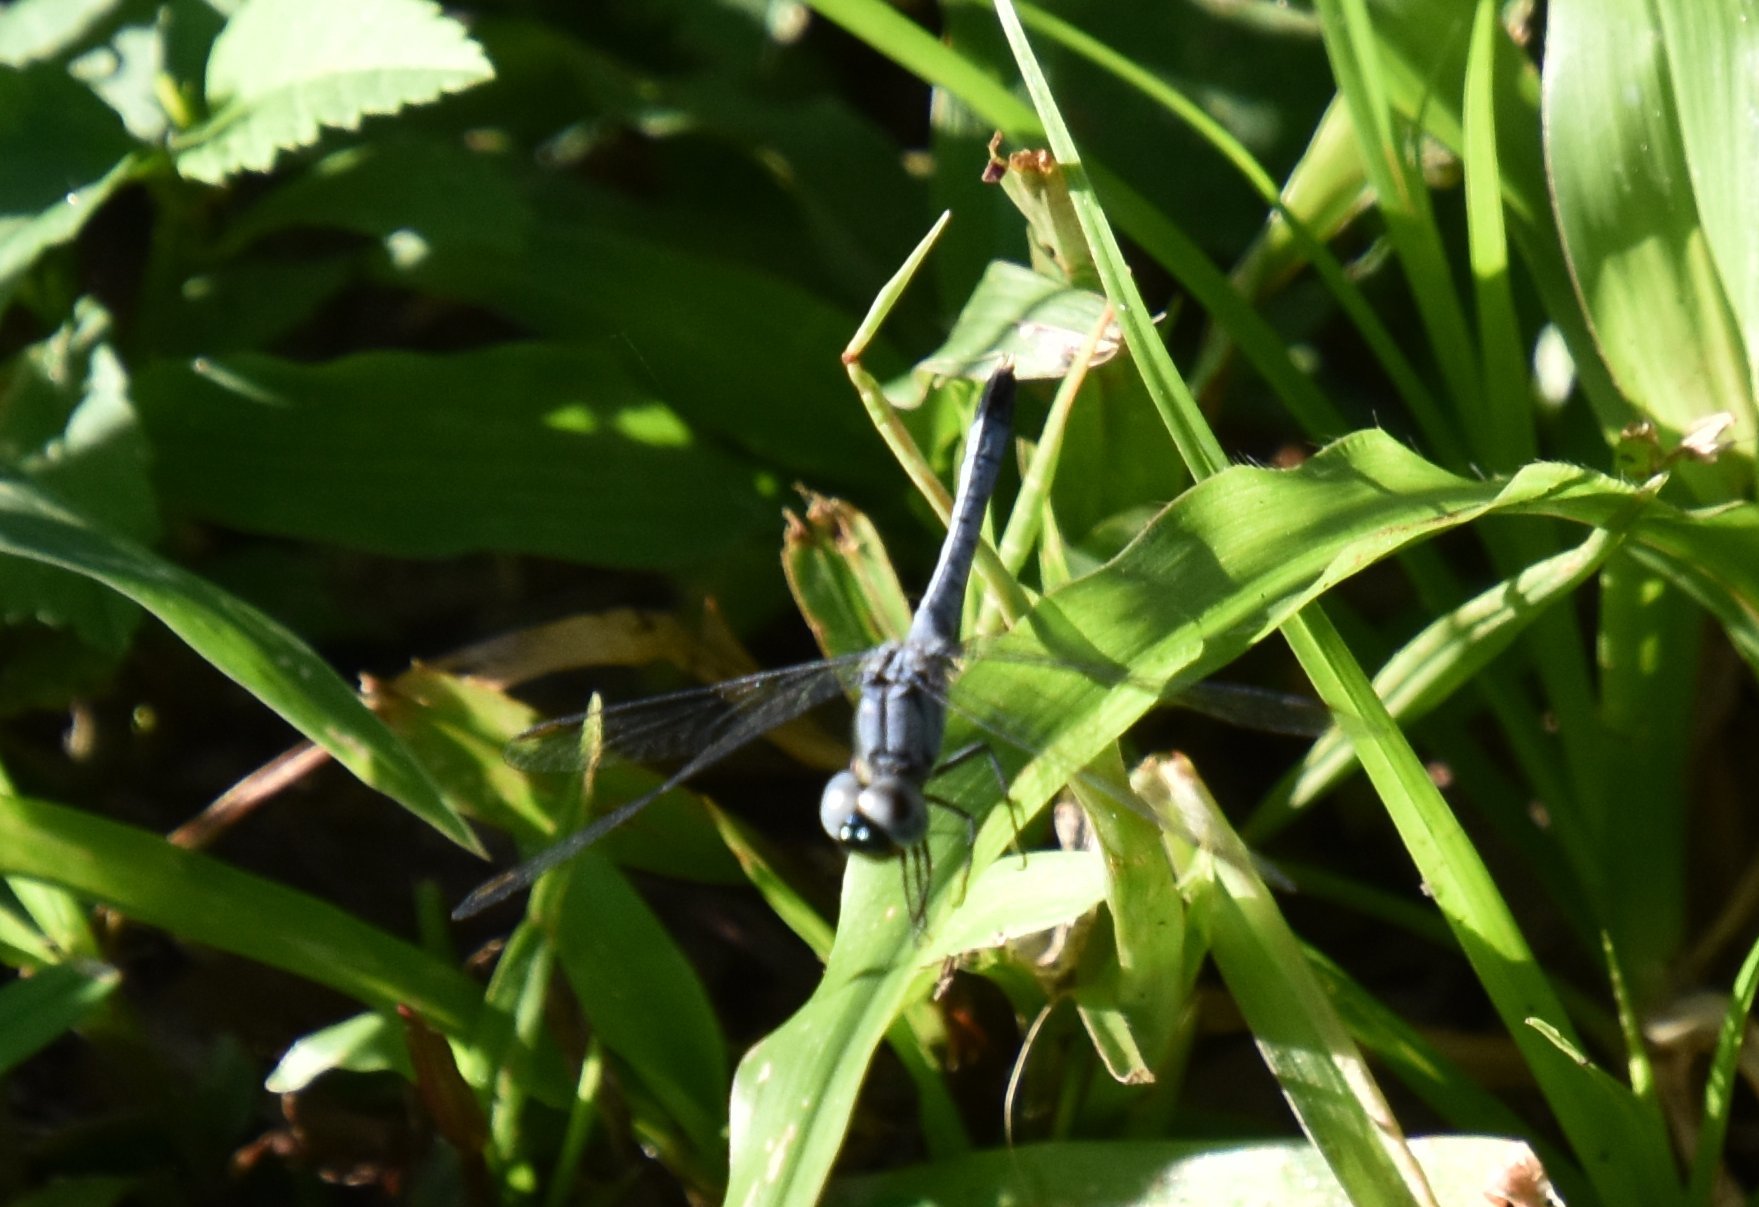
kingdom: Animalia
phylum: Arthropoda
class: Insecta
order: Odonata
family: Libellulidae
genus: Erythrodiplax
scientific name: Erythrodiplax minuscula
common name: Little blue dragonlet
